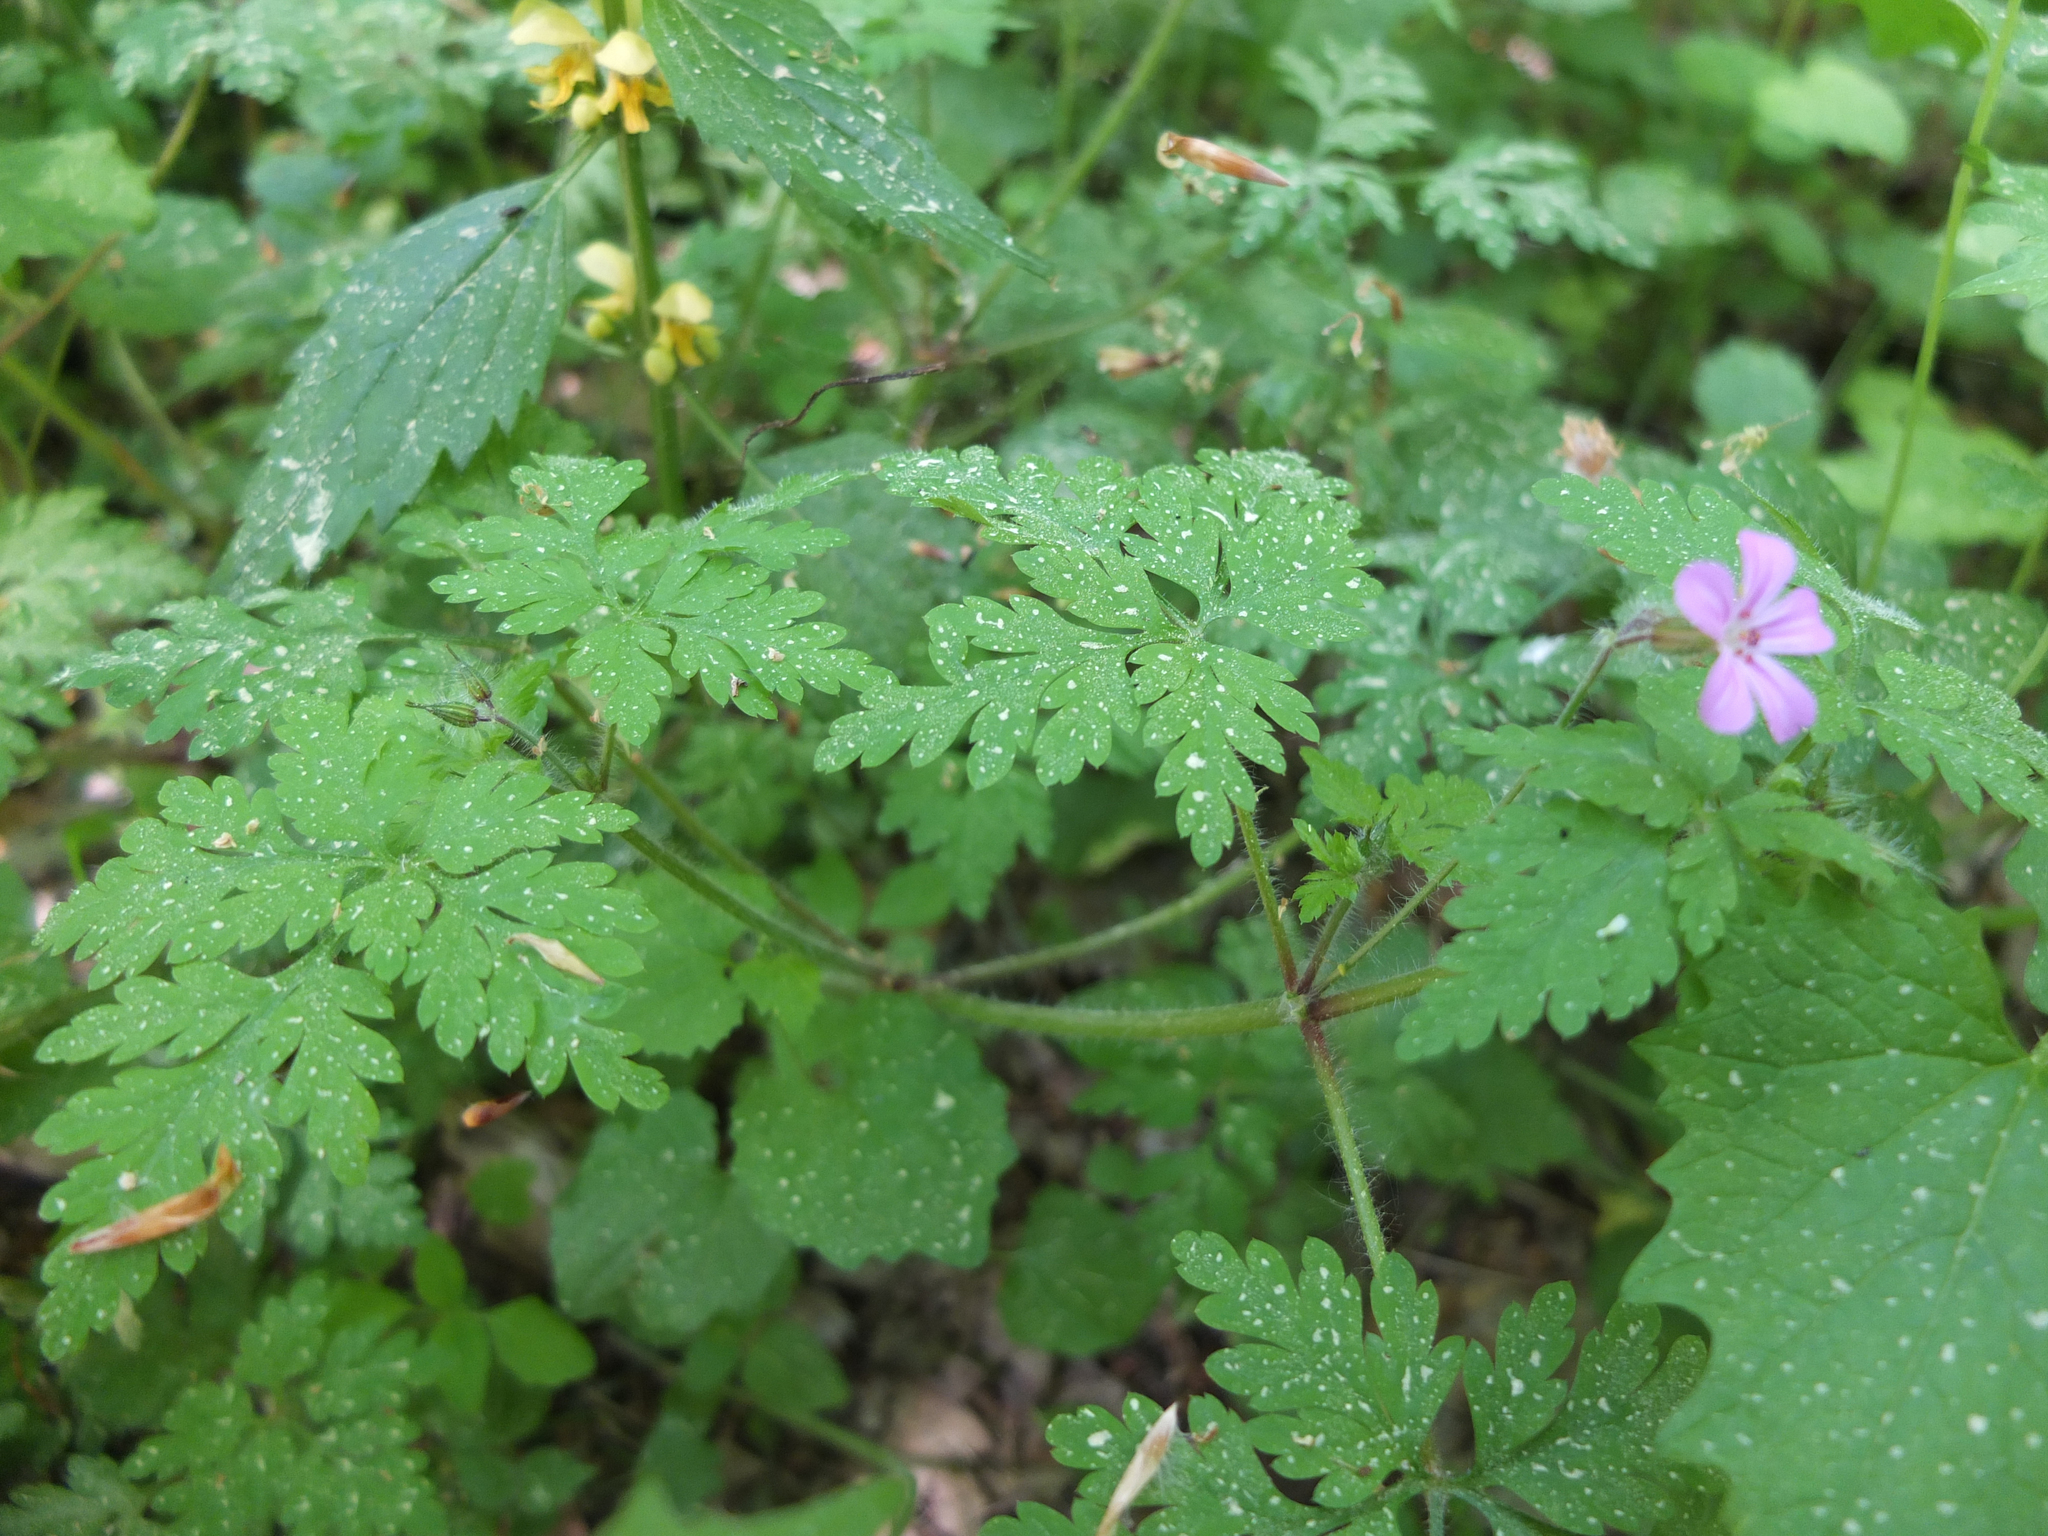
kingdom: Plantae
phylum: Tracheophyta
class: Magnoliopsida
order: Geraniales
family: Geraniaceae
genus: Geranium
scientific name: Geranium robertianum
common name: Herb-robert
